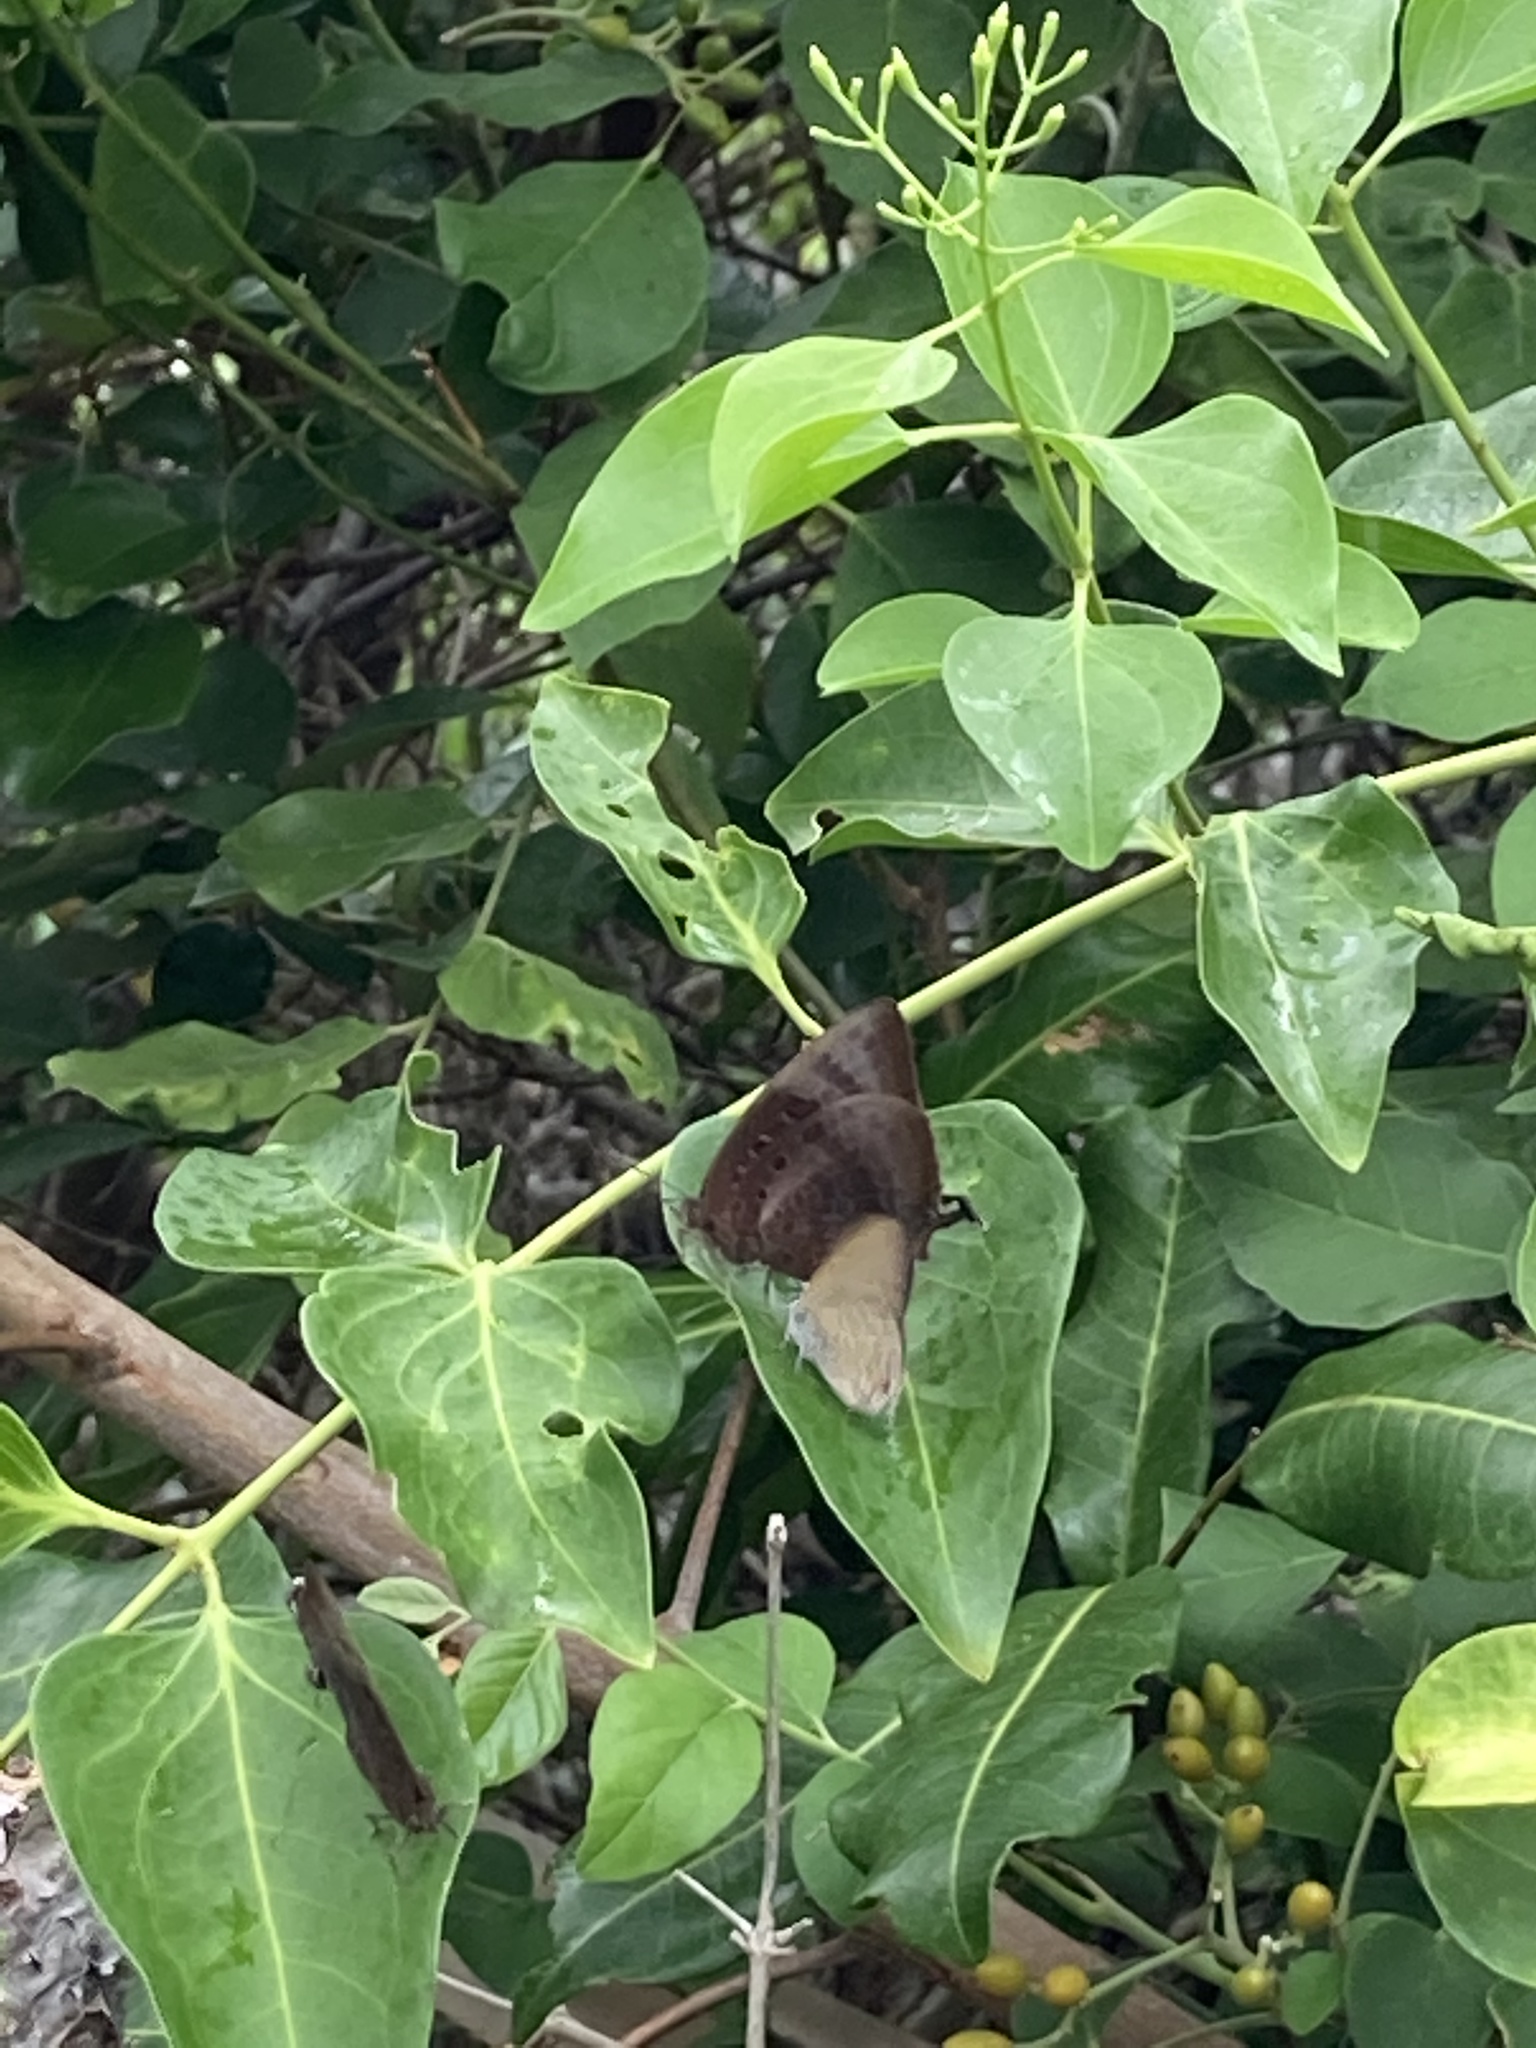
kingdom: Animalia
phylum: Arthropoda
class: Insecta
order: Lepidoptera
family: Lycaenidae
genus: Arhopala
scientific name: Arhopala micale
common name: Shining oak-blue
